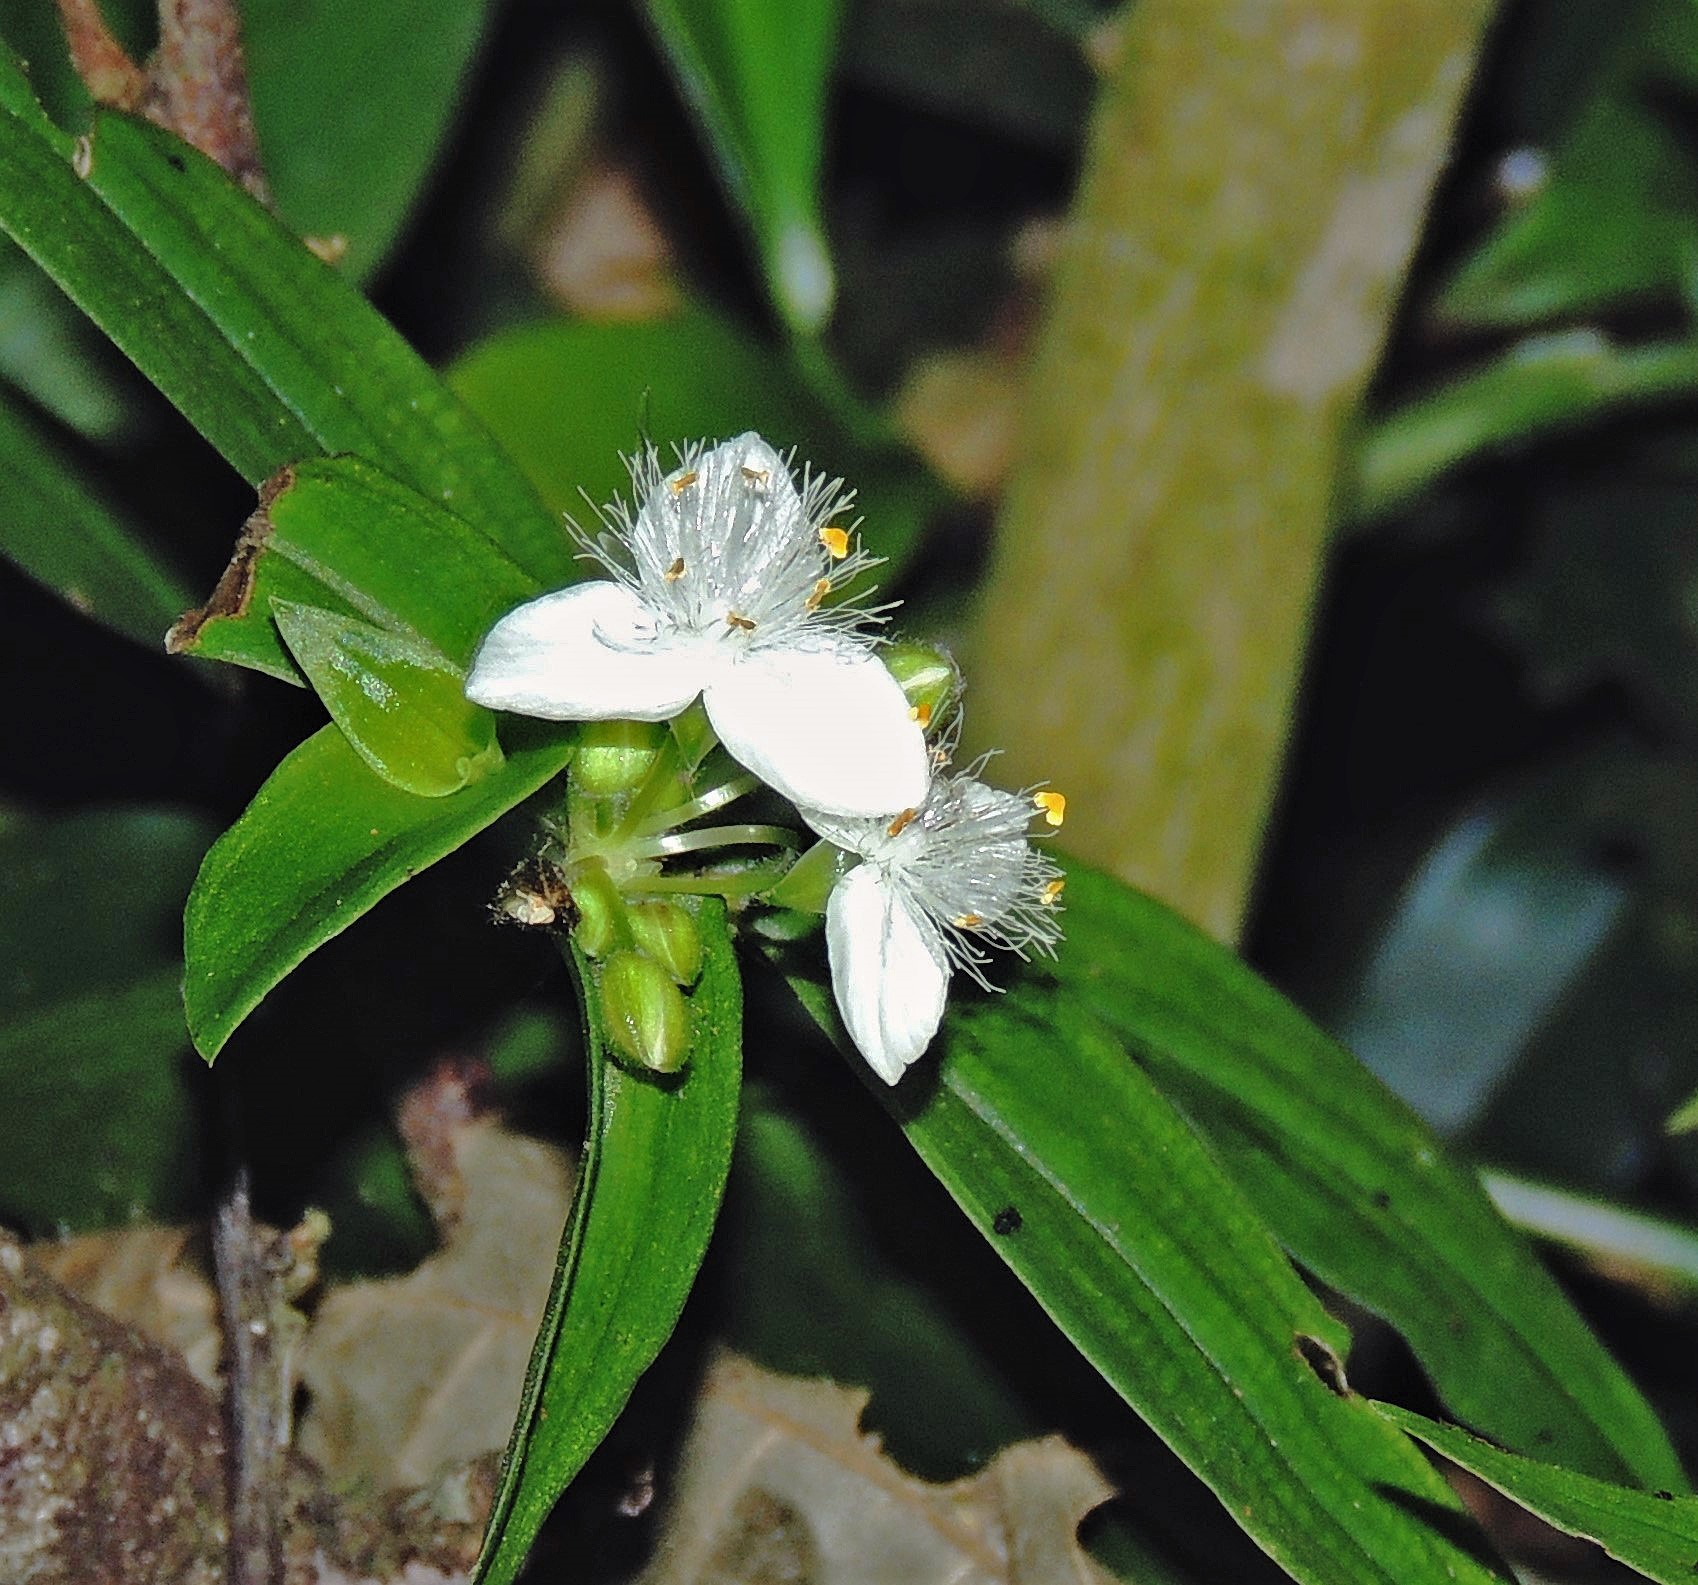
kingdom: Plantae
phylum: Tracheophyta
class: Liliopsida
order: Commelinales
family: Commelinaceae
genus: Tradescantia
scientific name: Tradescantia fluminensis
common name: Wandering-jew
